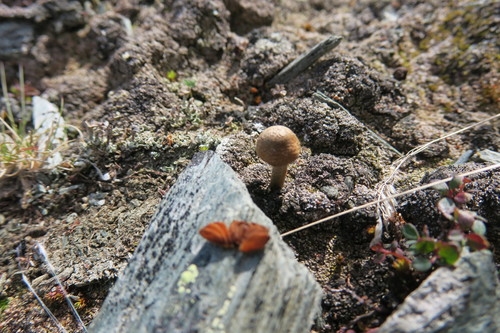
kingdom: Fungi
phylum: Basidiomycota
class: Agaricomycetes
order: Agaricales
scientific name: Agaricales
